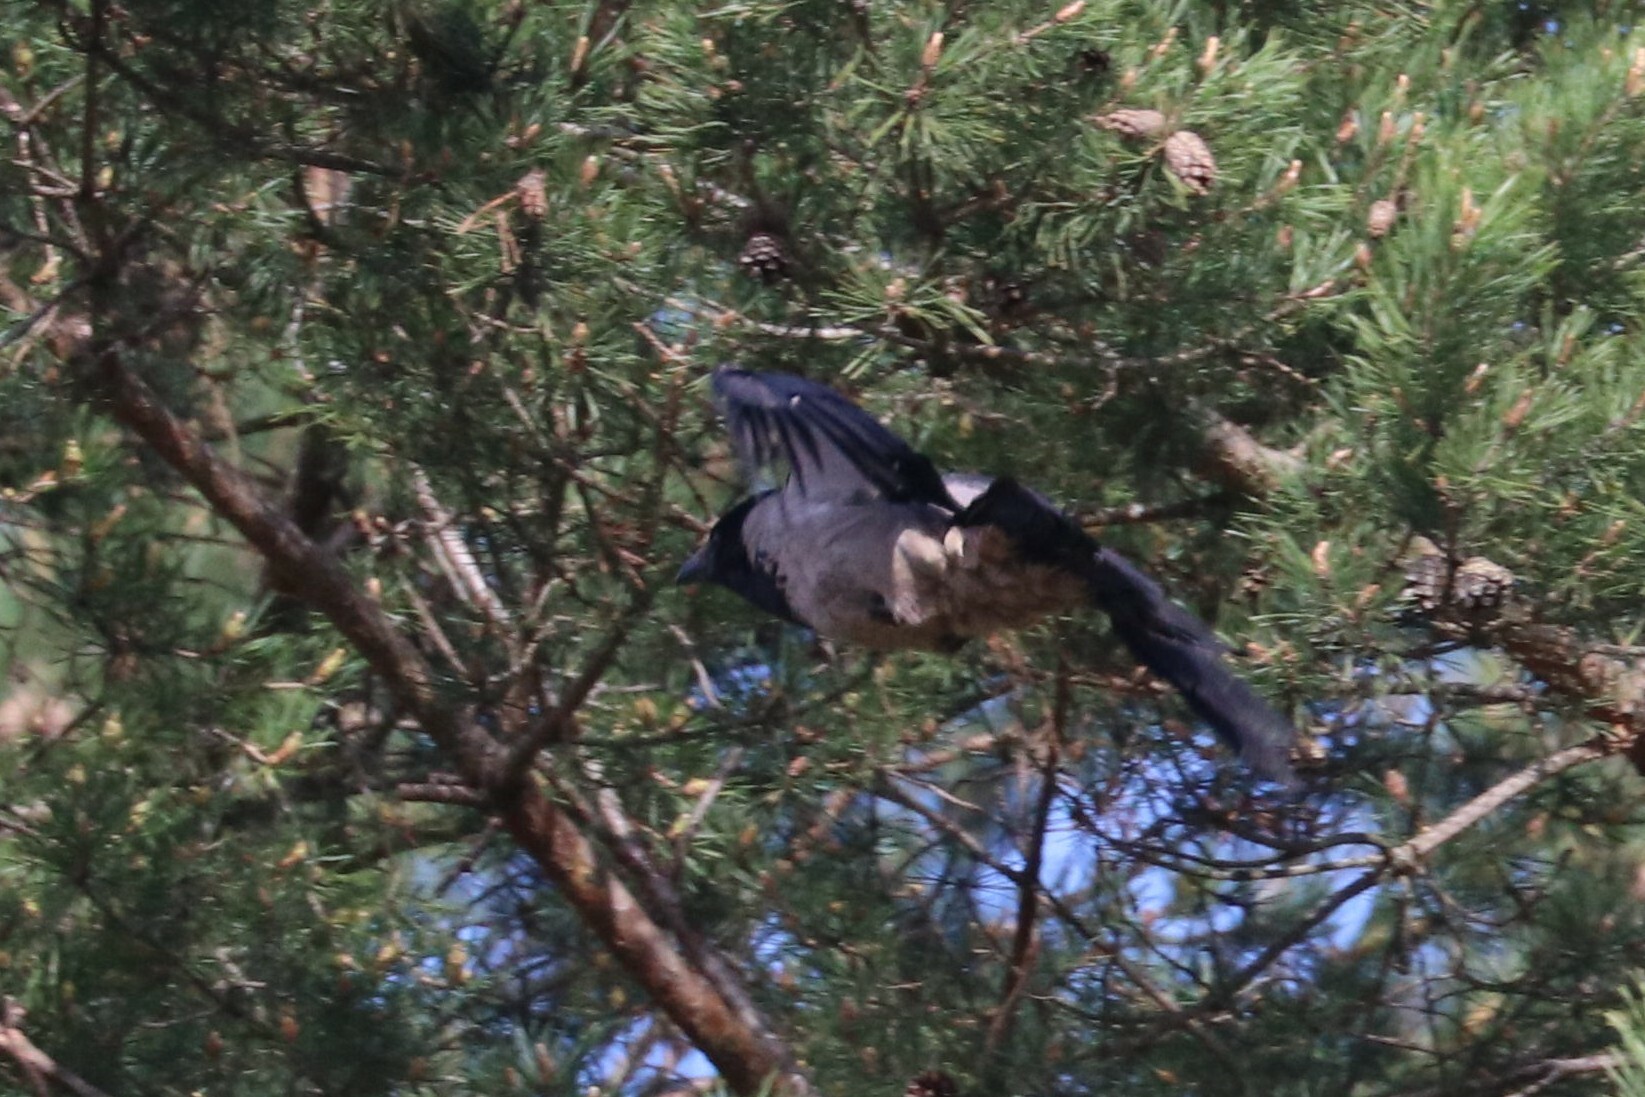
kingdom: Animalia
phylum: Chordata
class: Aves
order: Passeriformes
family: Corvidae
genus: Corvus
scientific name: Corvus cornix
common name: Hooded crow
